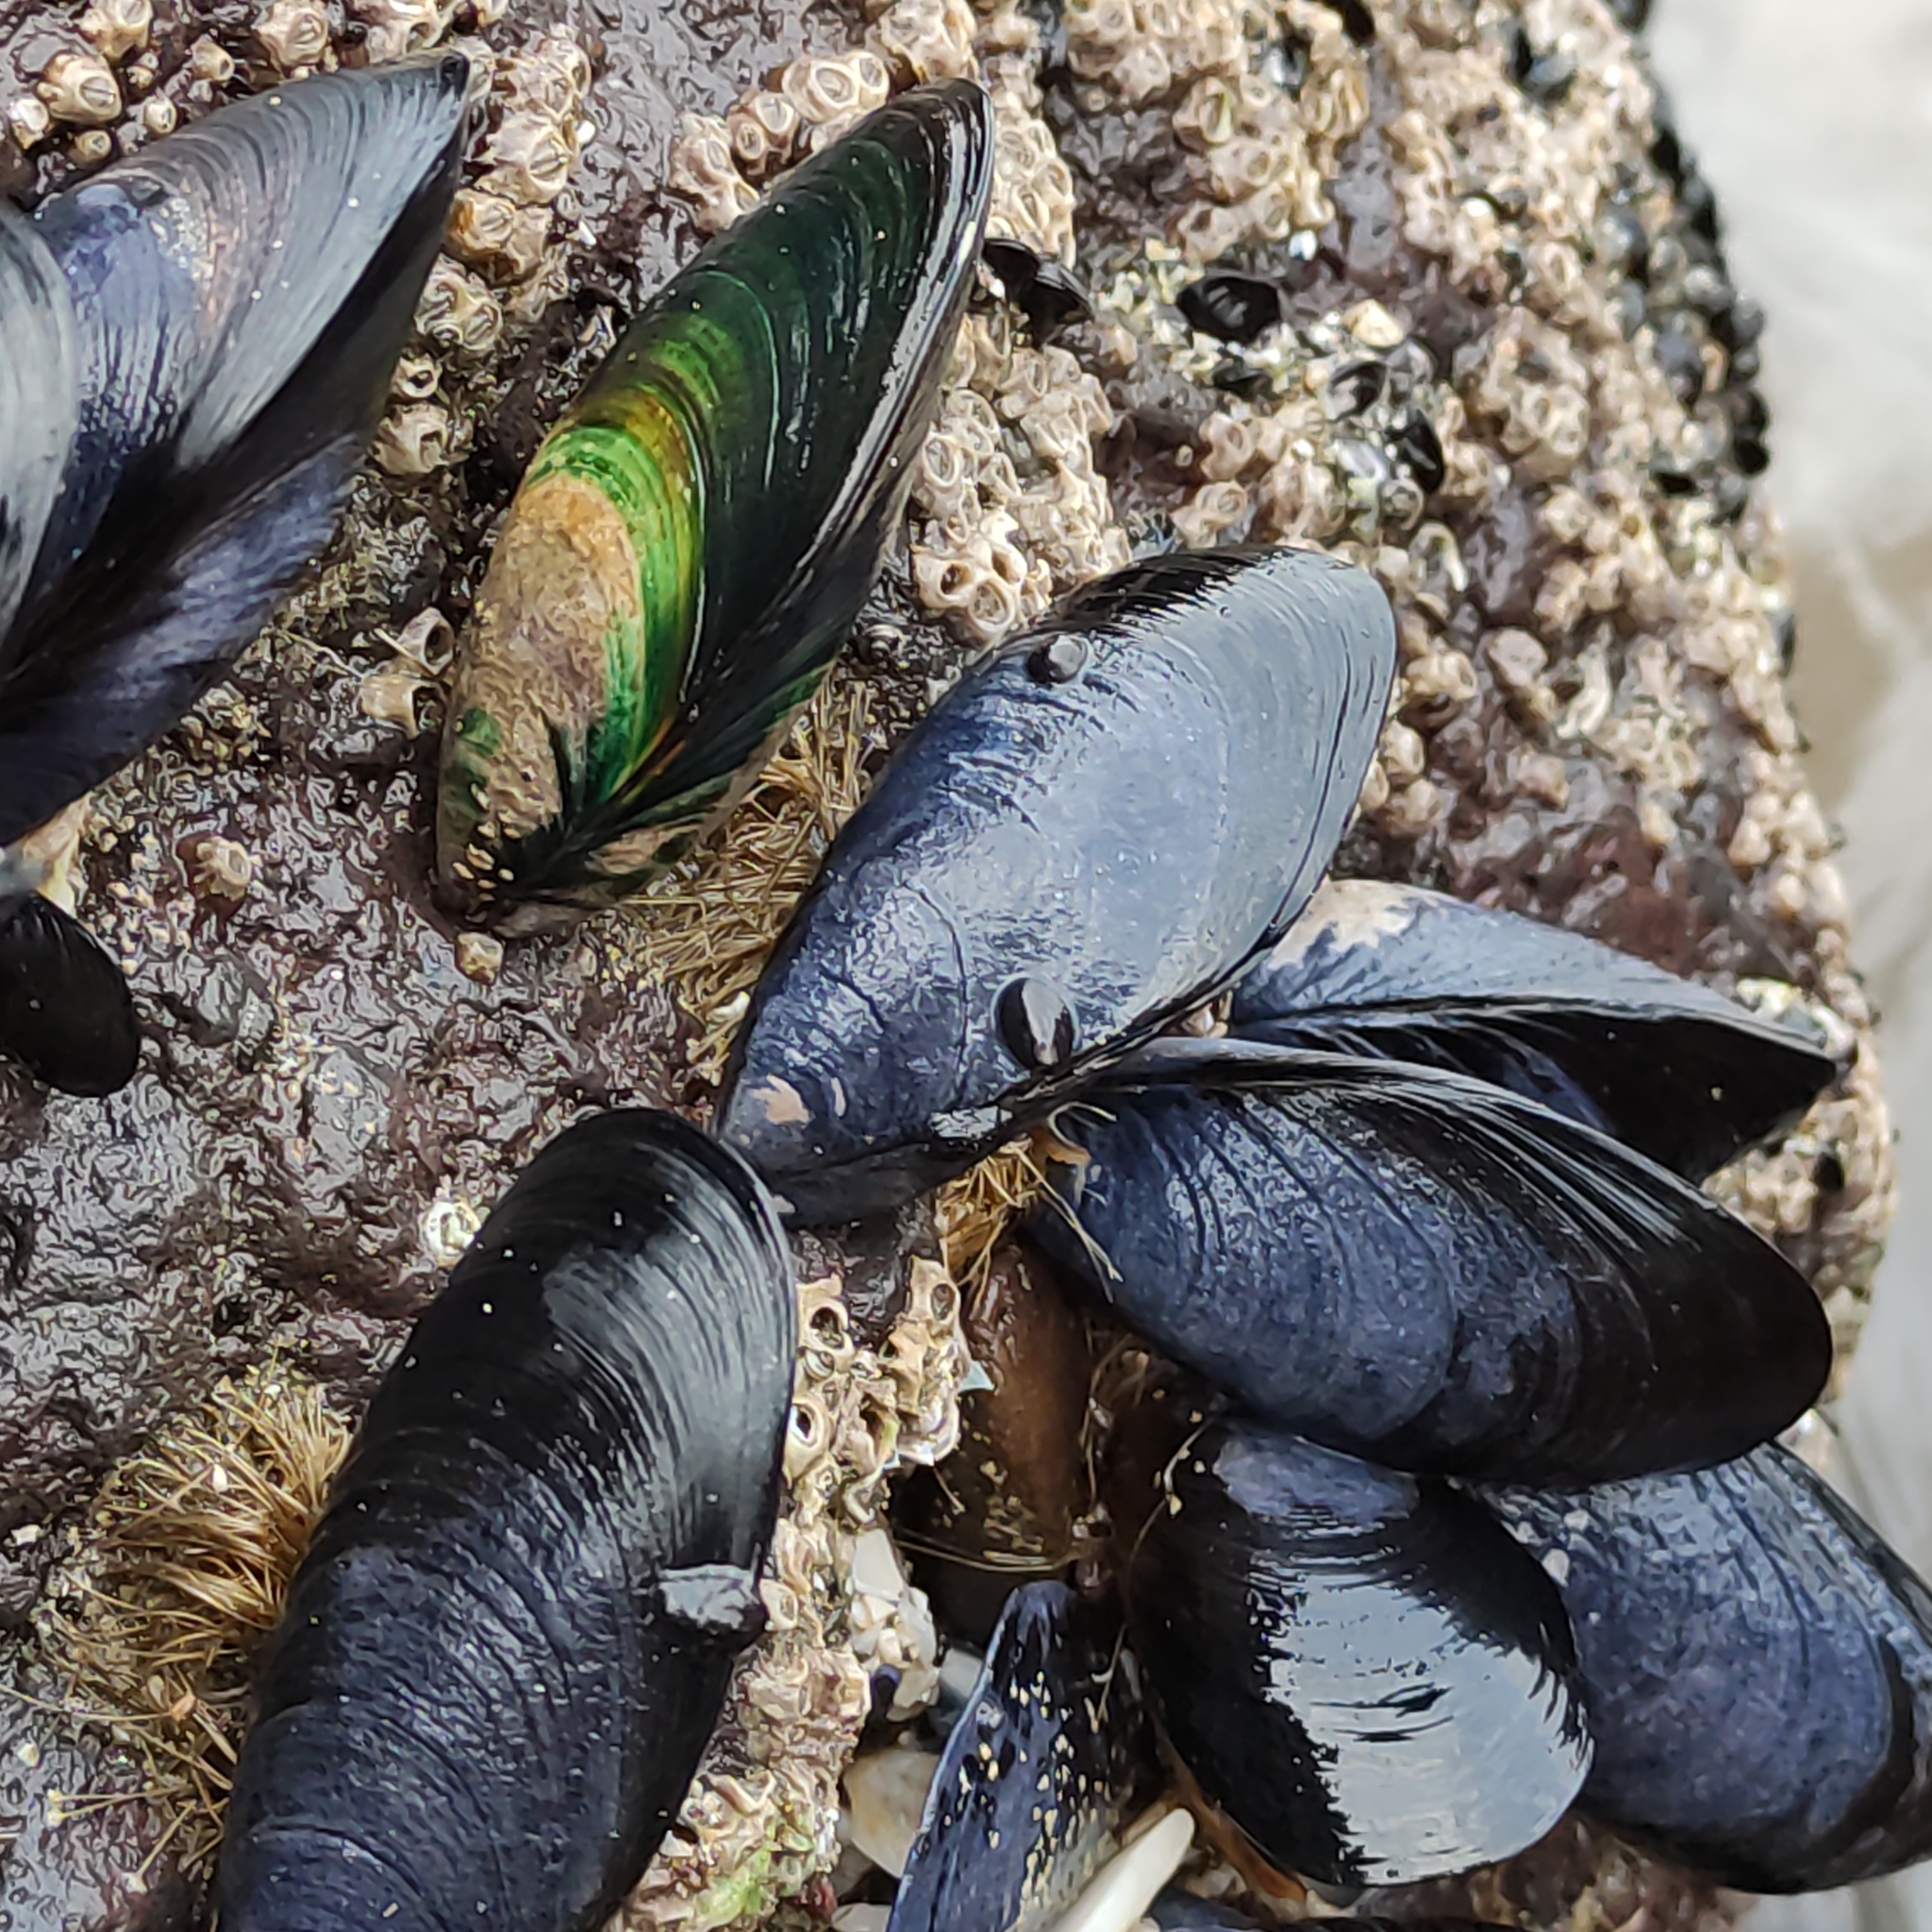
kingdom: Animalia
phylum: Mollusca
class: Bivalvia
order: Mytilida
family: Mytilidae
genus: Mytilus
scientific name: Mytilus planulatus
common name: Australian mussel
